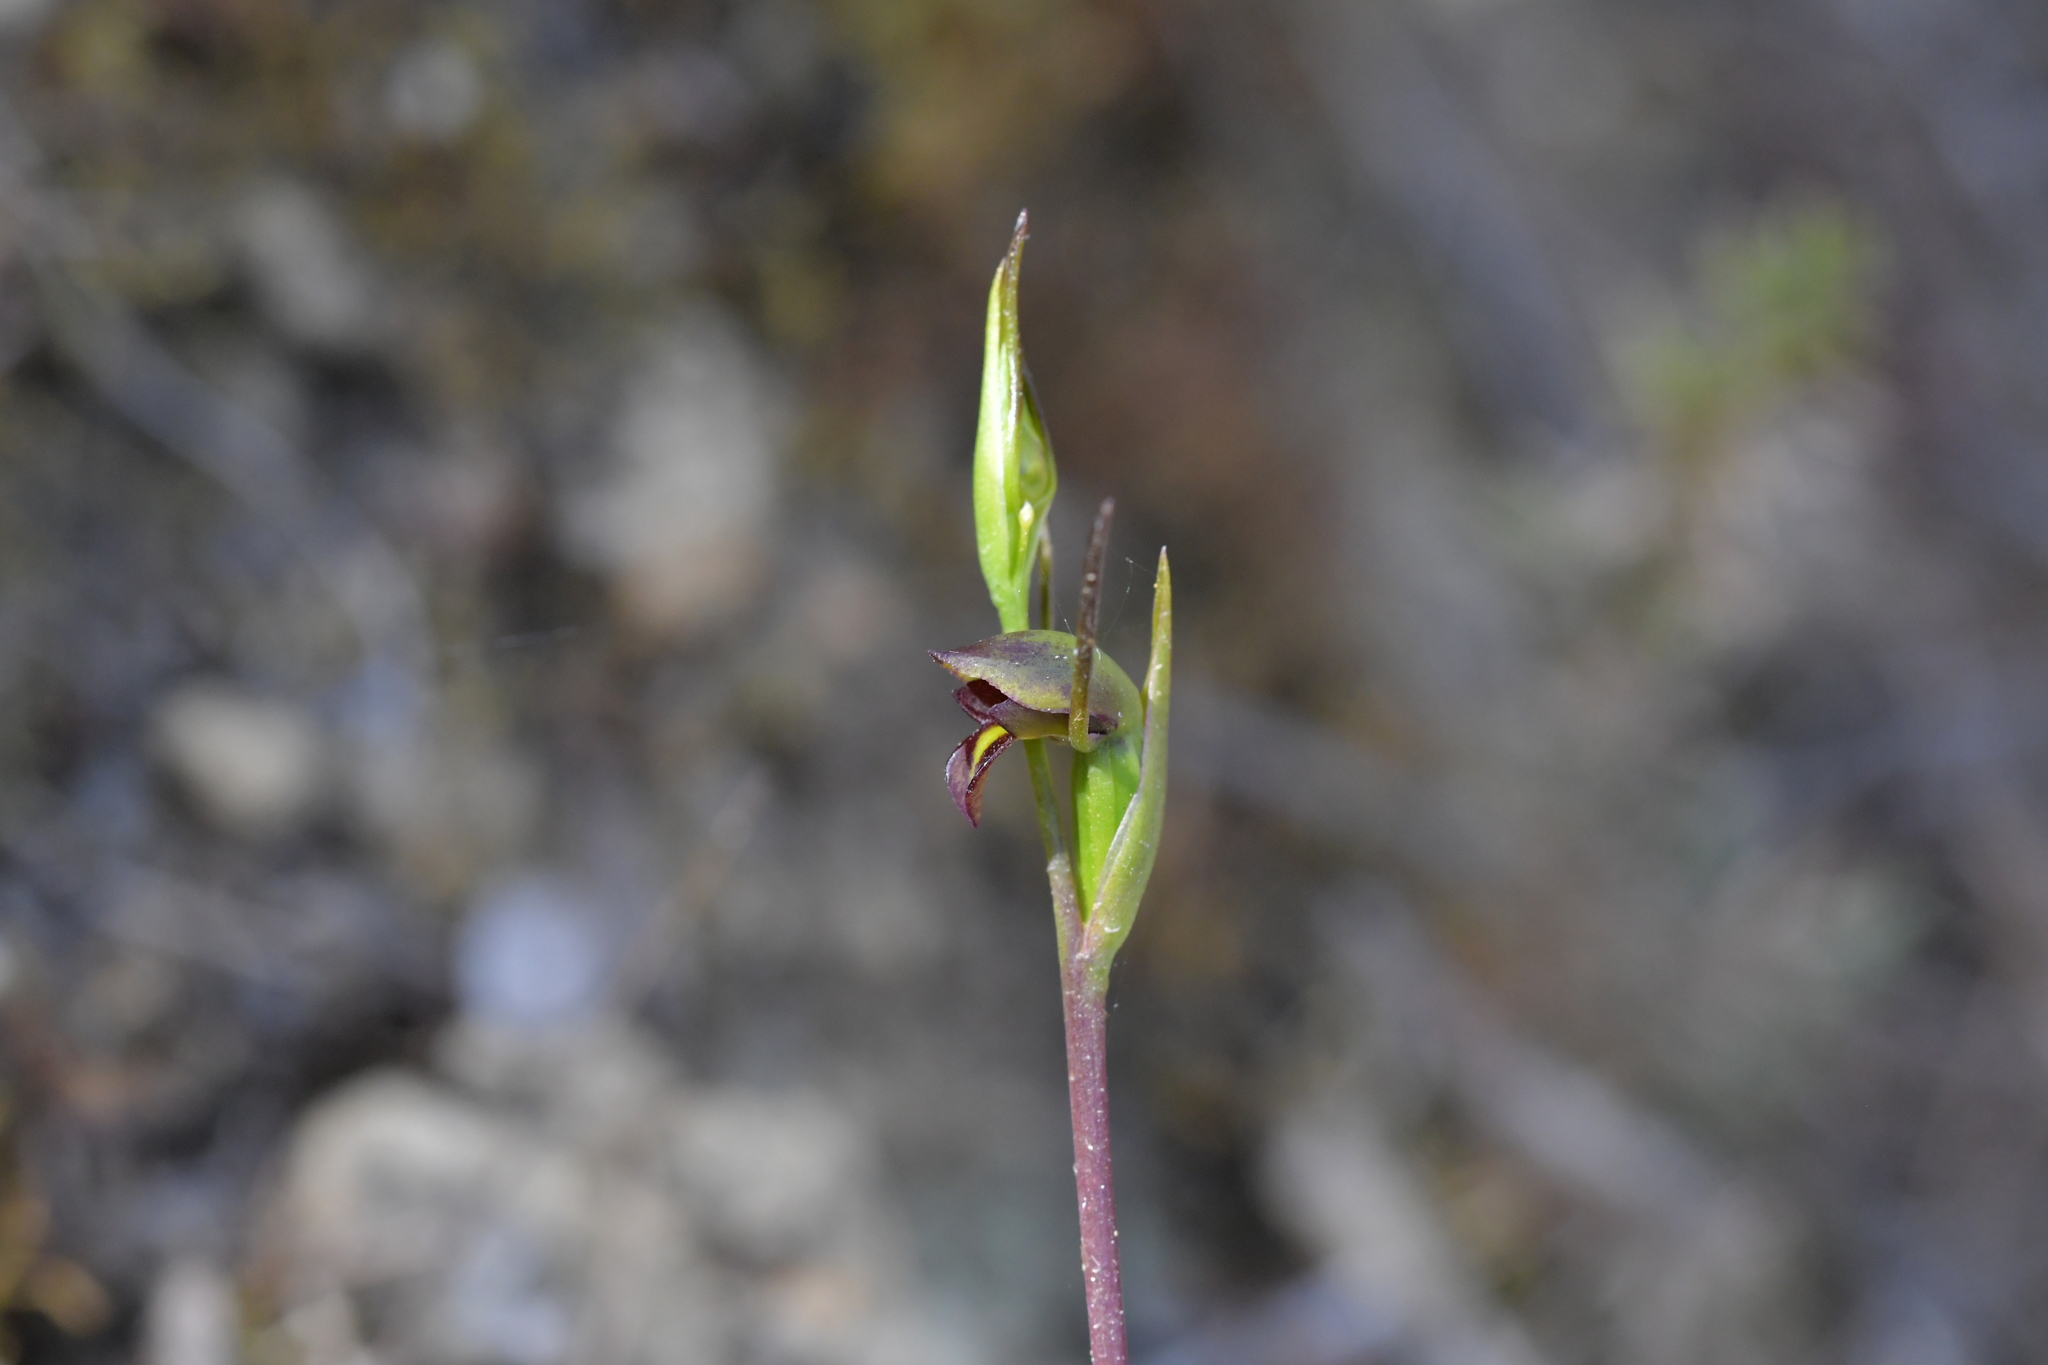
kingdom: Plantae
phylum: Tracheophyta
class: Liliopsida
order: Asparagales
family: Orchidaceae
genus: Orthoceras
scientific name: Orthoceras novae-zeelandiae
